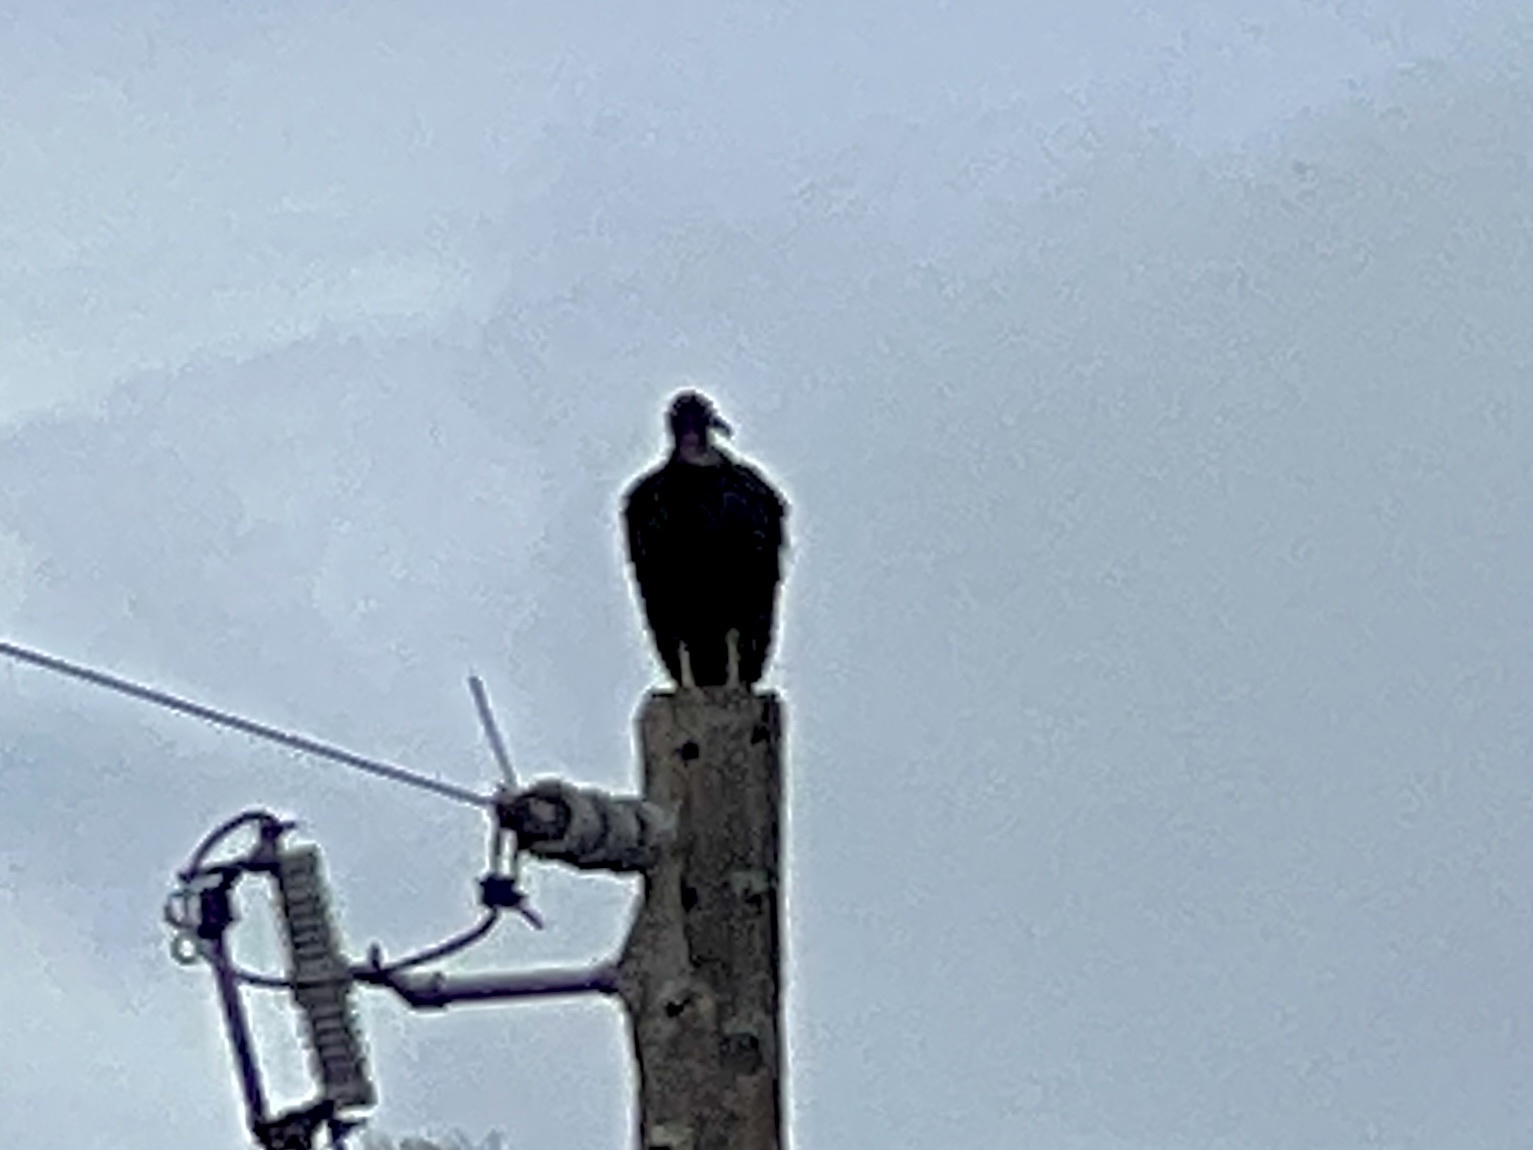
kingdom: Animalia
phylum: Chordata
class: Aves
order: Accipitriformes
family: Cathartidae
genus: Coragyps
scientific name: Coragyps atratus
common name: Black vulture
